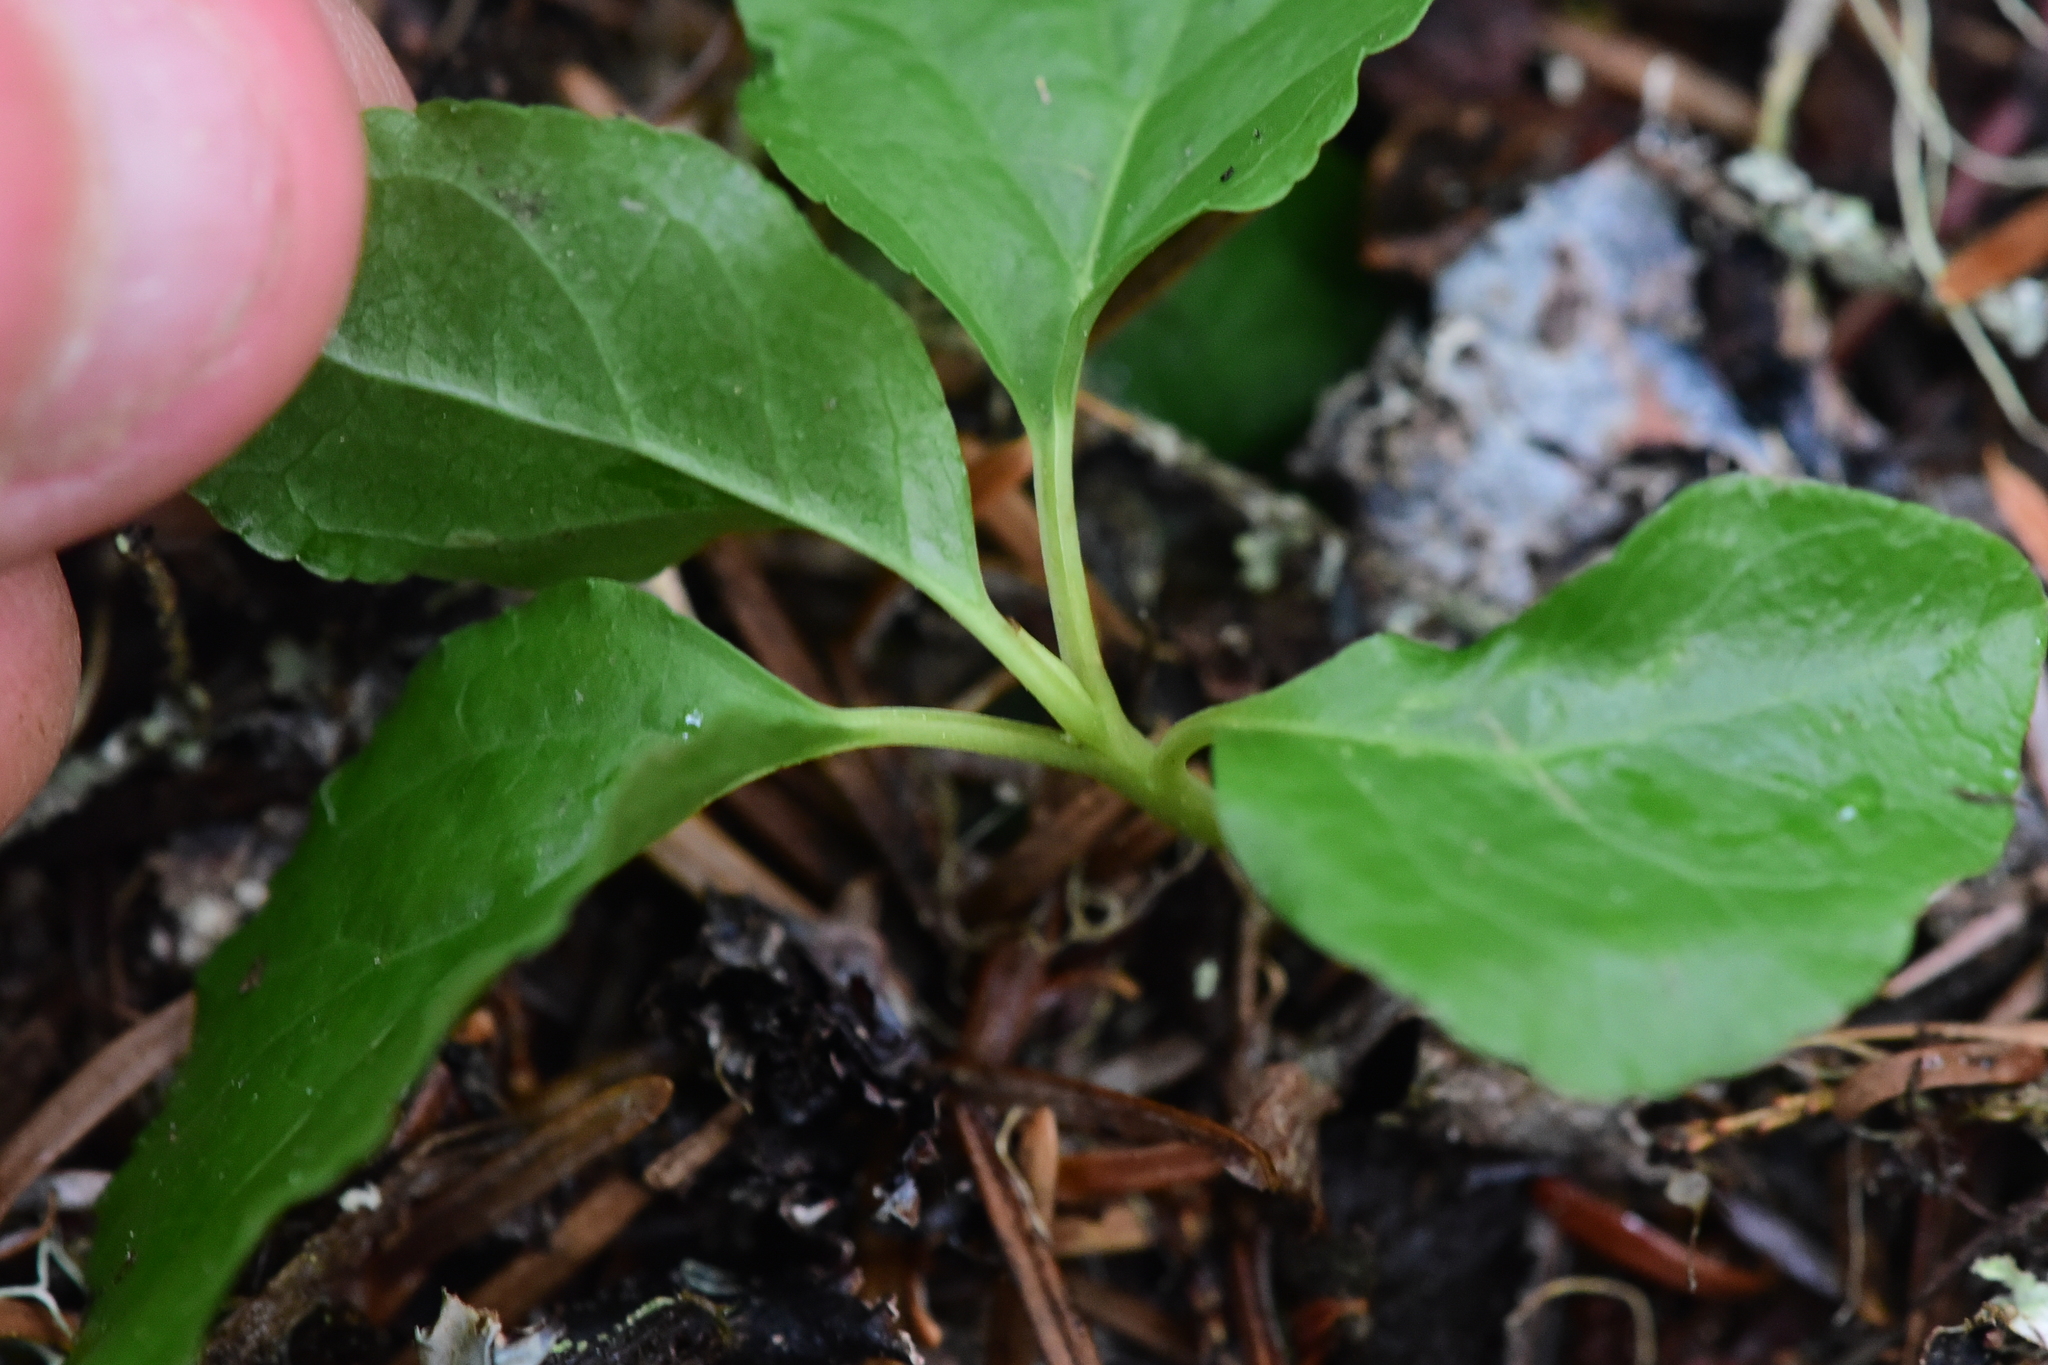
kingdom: Plantae
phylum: Tracheophyta
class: Magnoliopsida
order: Ericales
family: Ericaceae
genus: Orthilia
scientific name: Orthilia secunda
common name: One-sided orthilia
